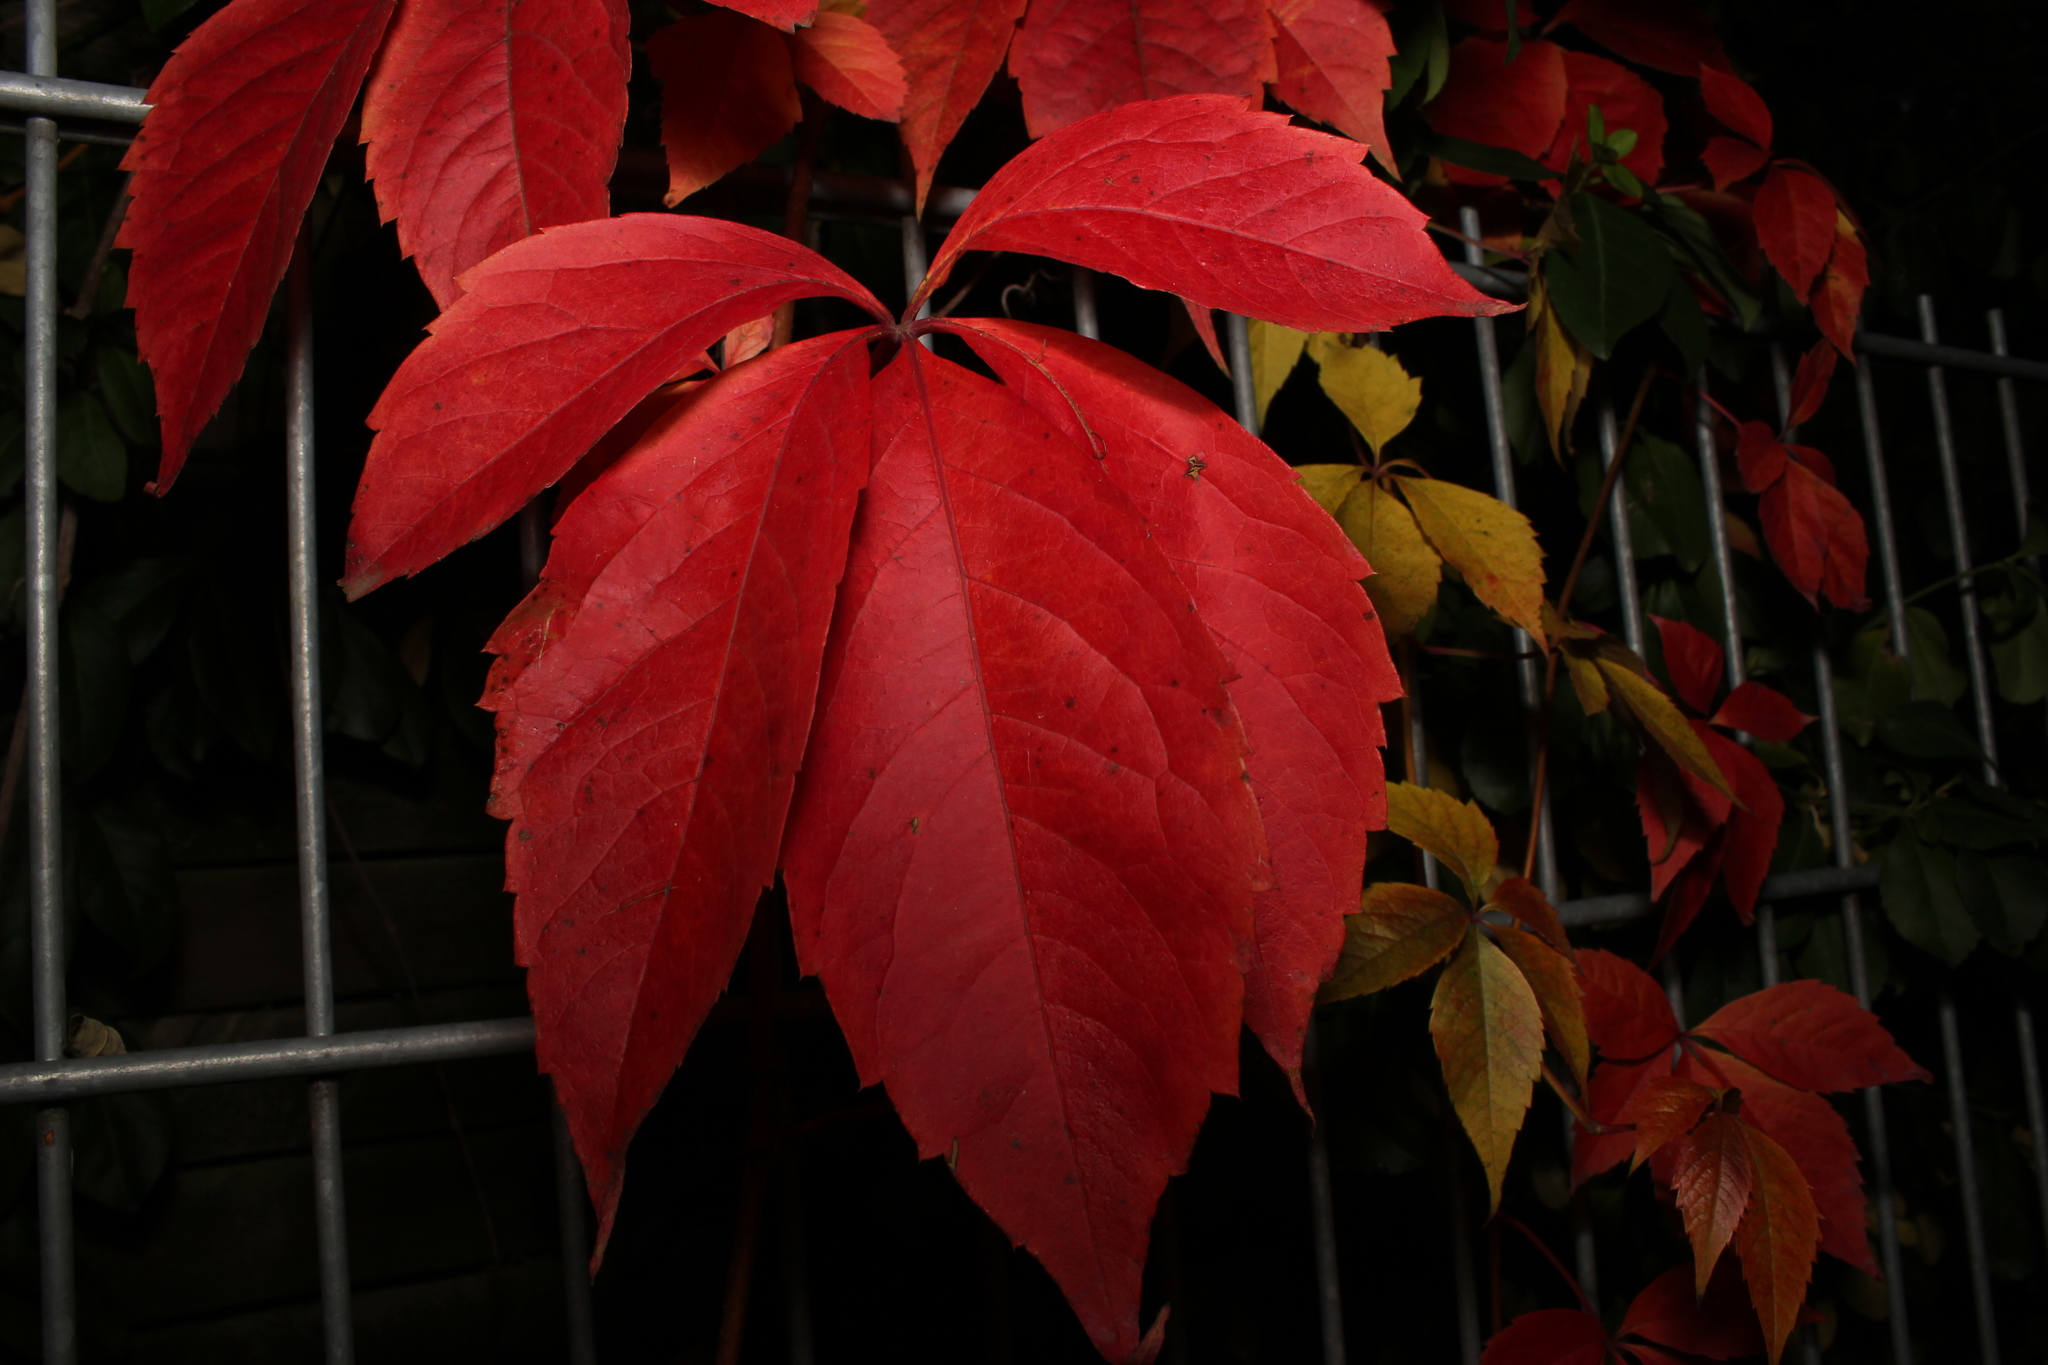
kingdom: Plantae
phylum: Tracheophyta
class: Magnoliopsida
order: Vitales
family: Vitaceae
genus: Parthenocissus
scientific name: Parthenocissus quinquefolia
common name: Virginia-creeper
